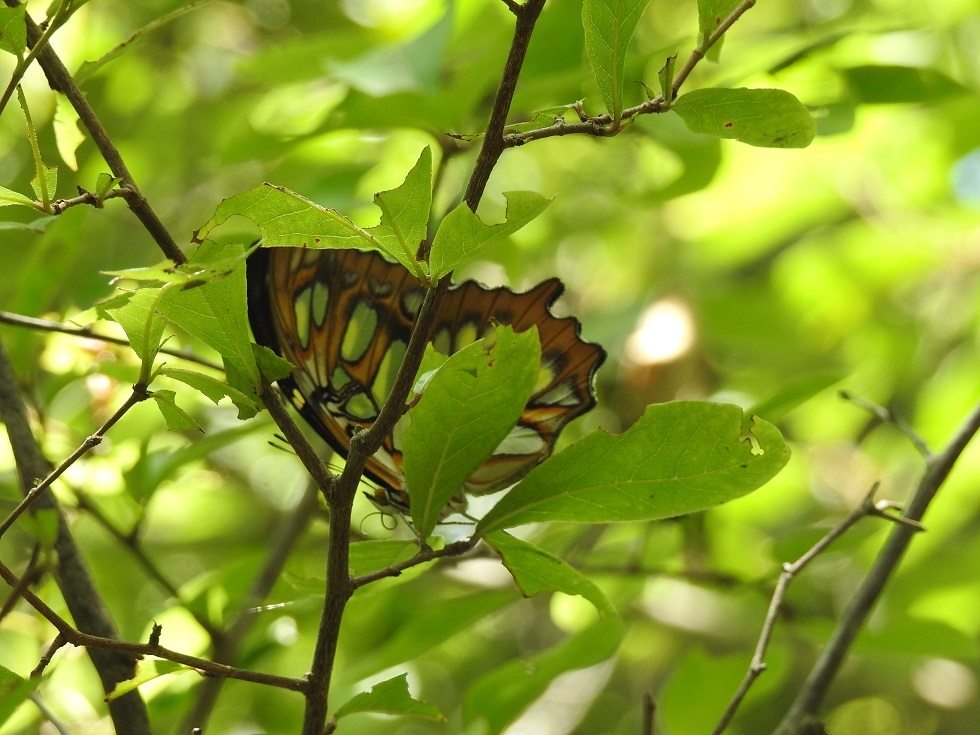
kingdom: Animalia
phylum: Arthropoda
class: Insecta
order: Lepidoptera
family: Nymphalidae
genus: Siproeta
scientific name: Siproeta stelenes
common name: Malachite
